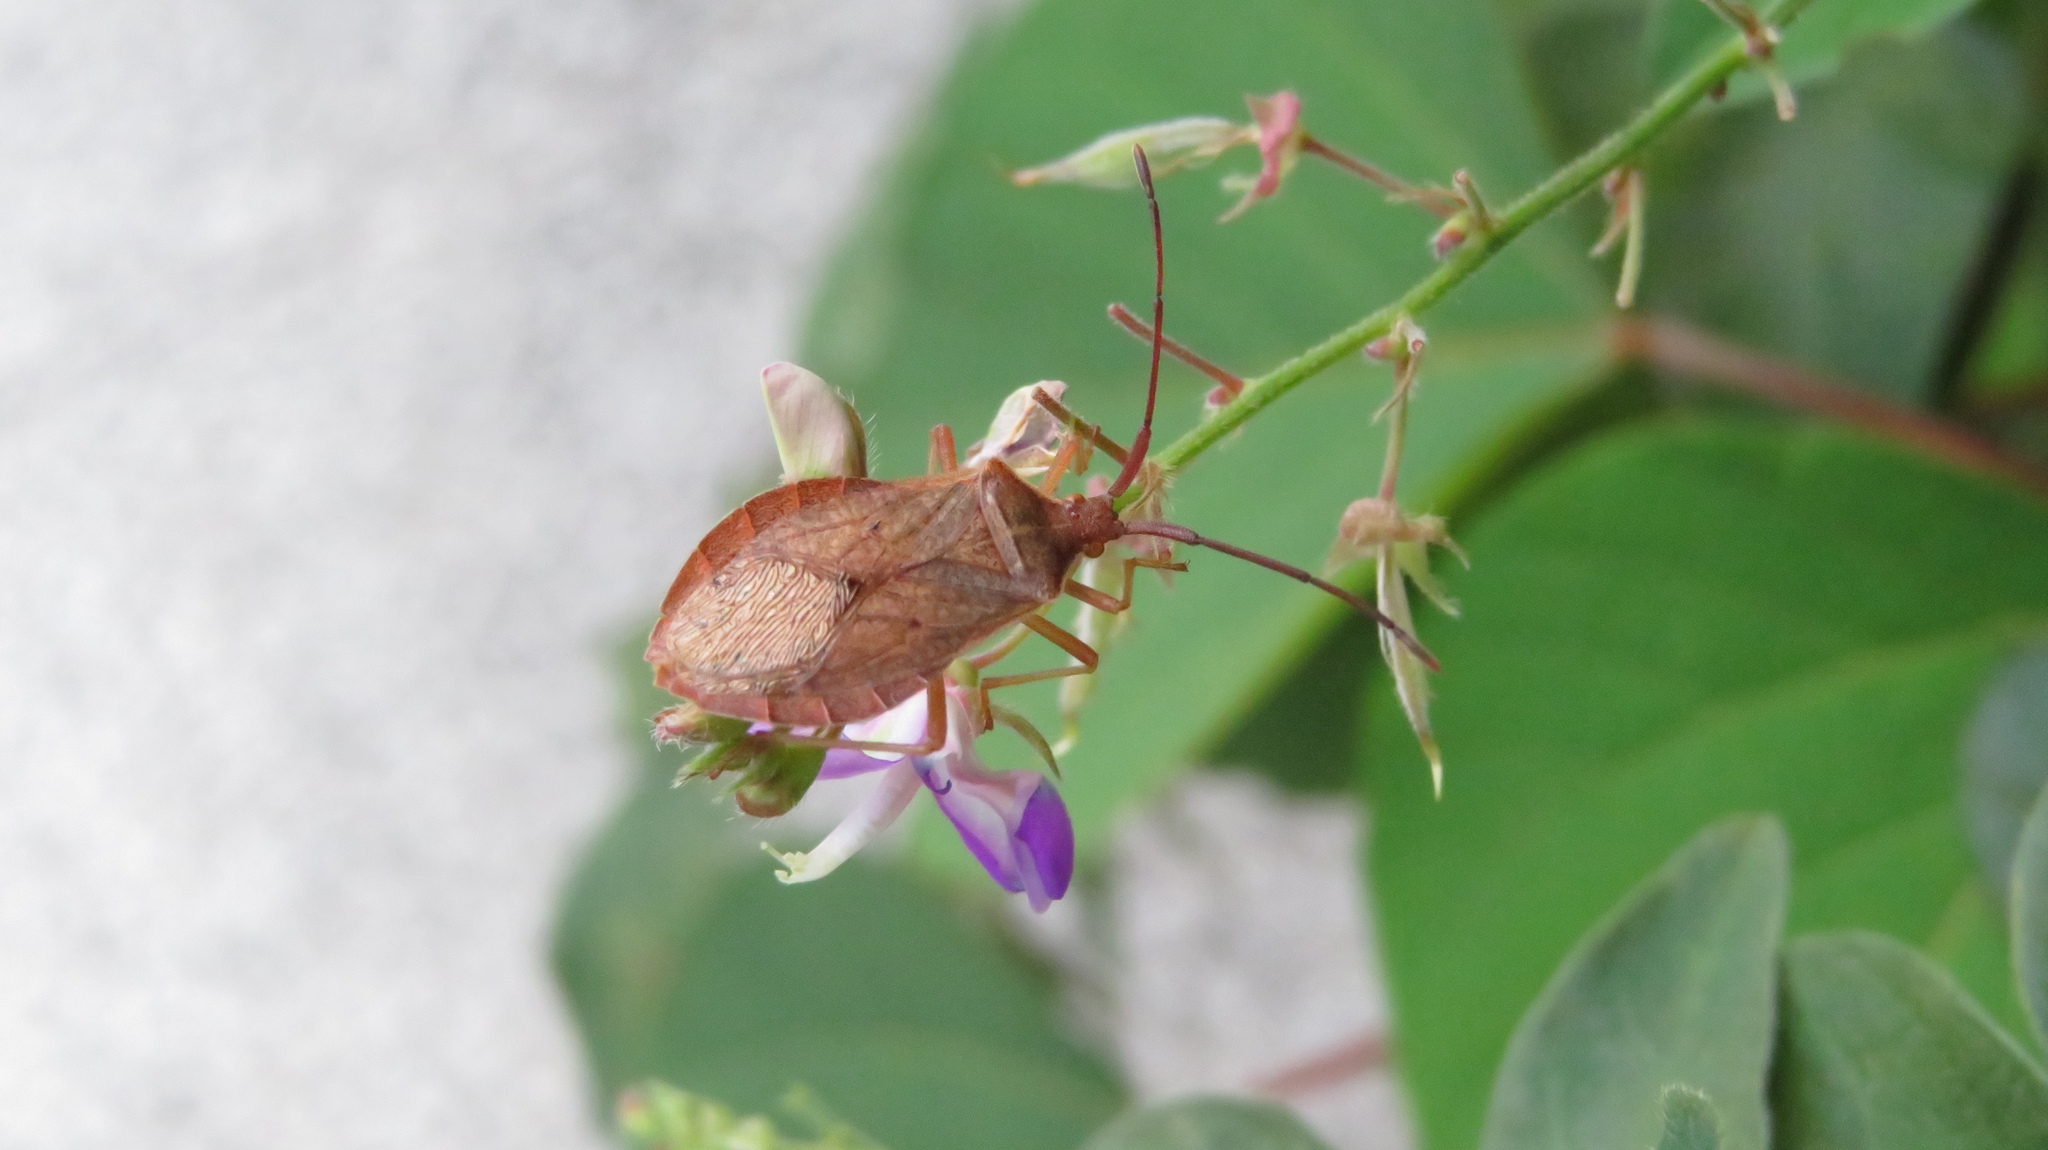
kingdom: Animalia
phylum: Arthropoda
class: Insecta
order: Hemiptera
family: Coreidae
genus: Homoeocerus
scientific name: Homoeocerus dilatatus
